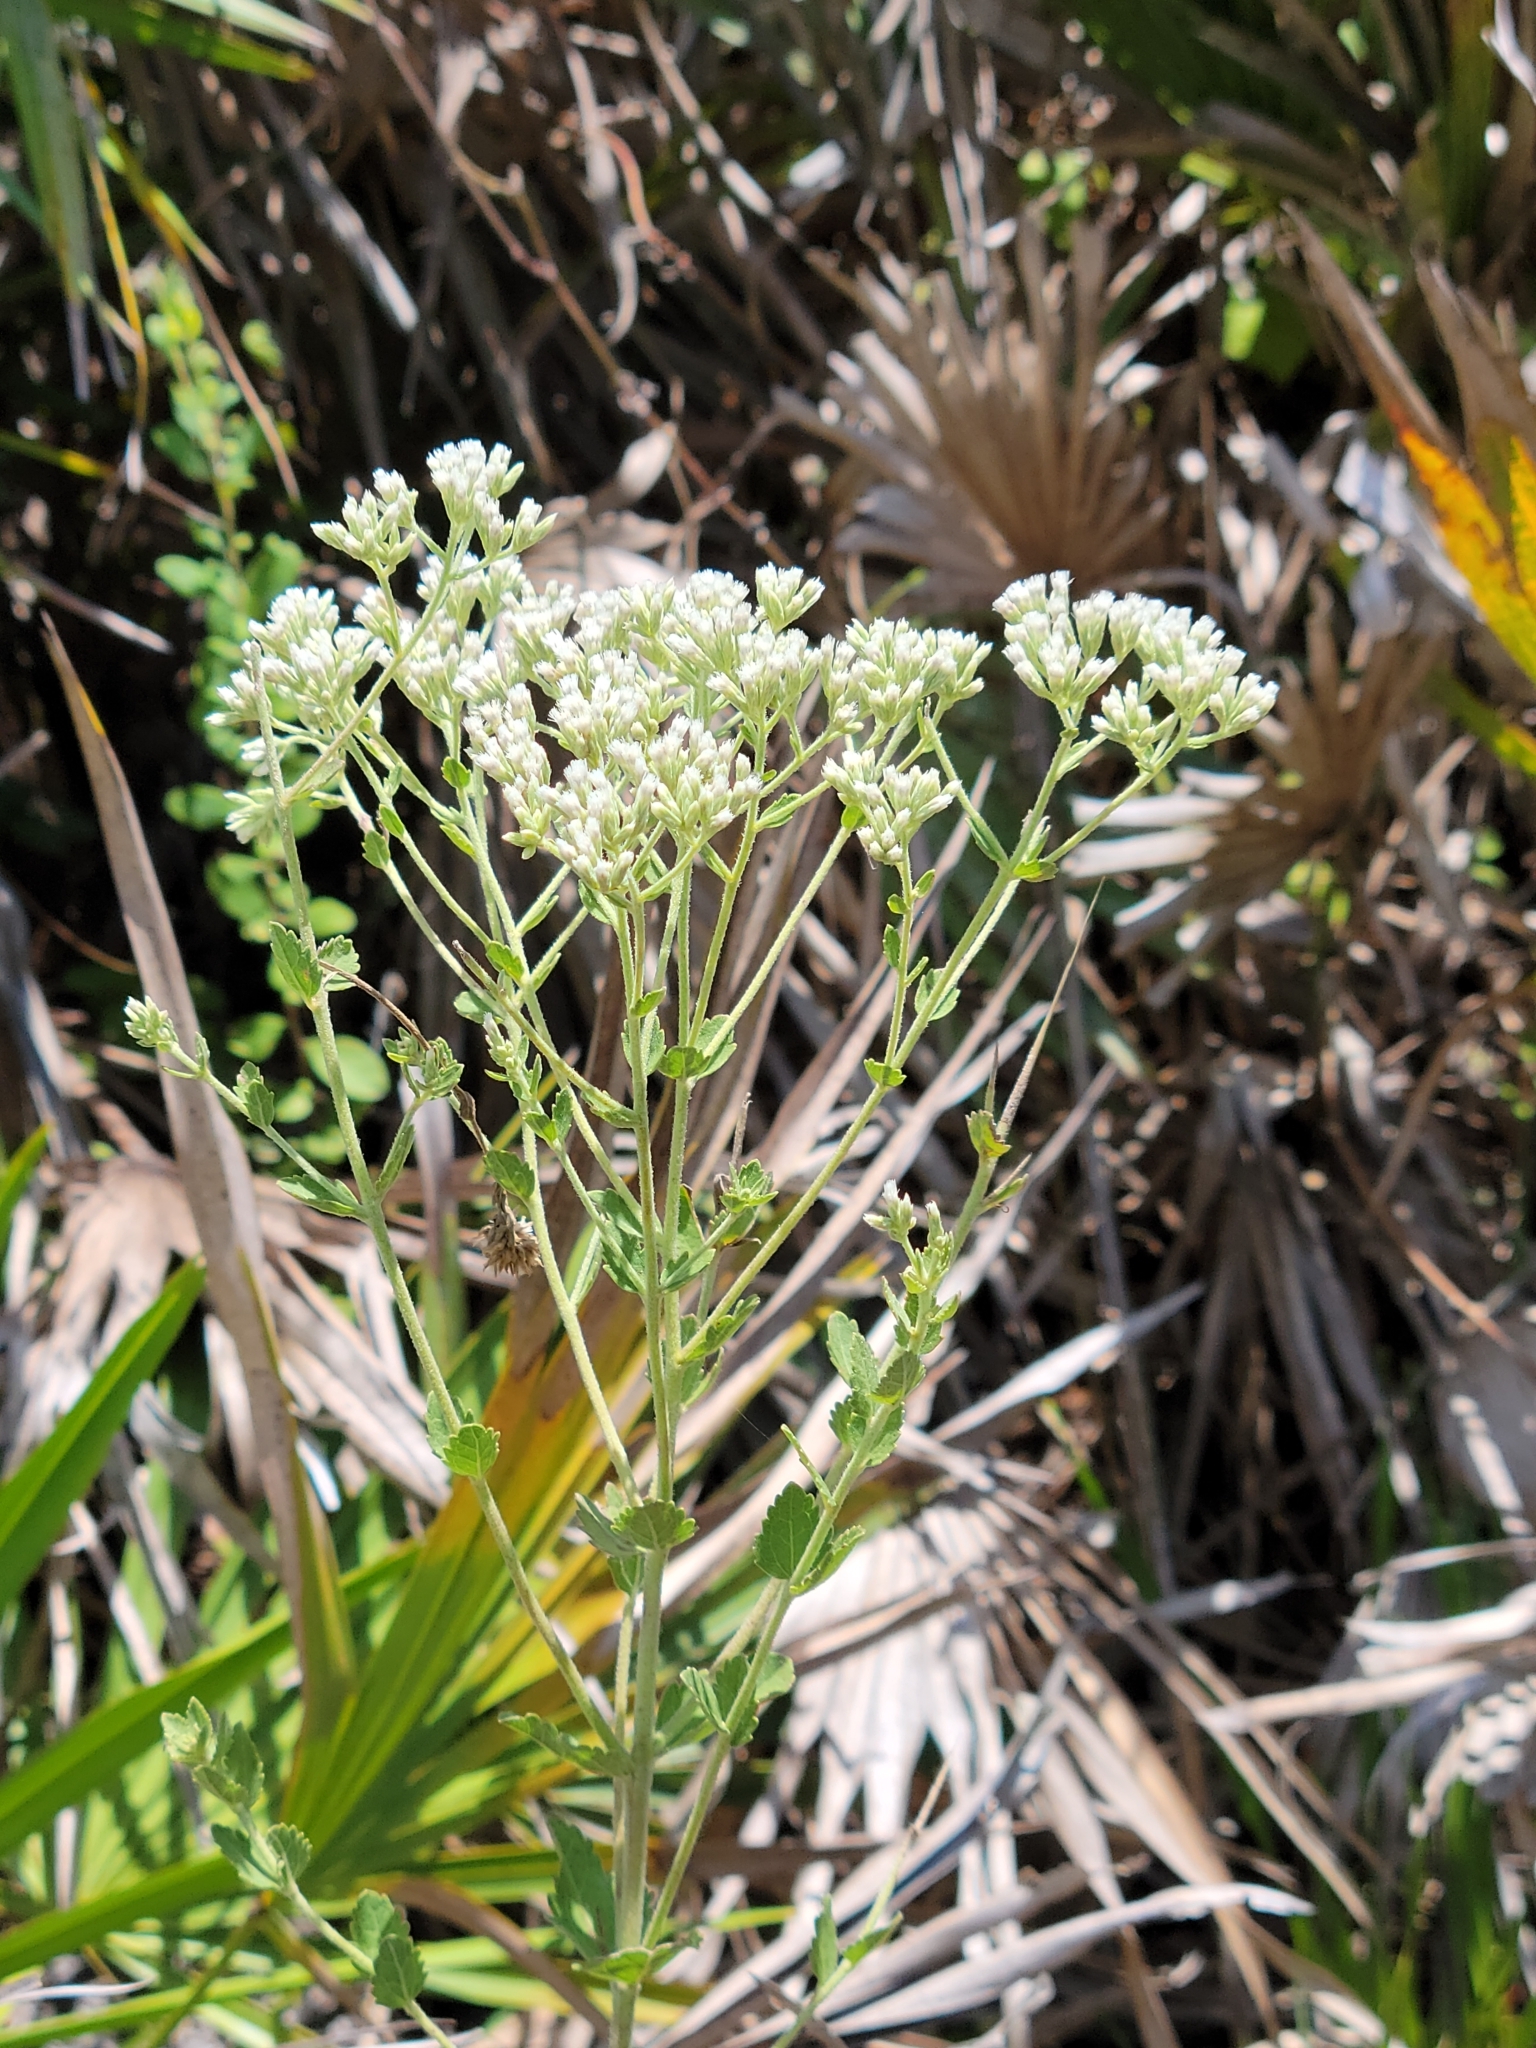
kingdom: Plantae
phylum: Tracheophyta
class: Magnoliopsida
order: Asterales
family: Asteraceae
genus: Eupatorium
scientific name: Eupatorium rotundifolium
